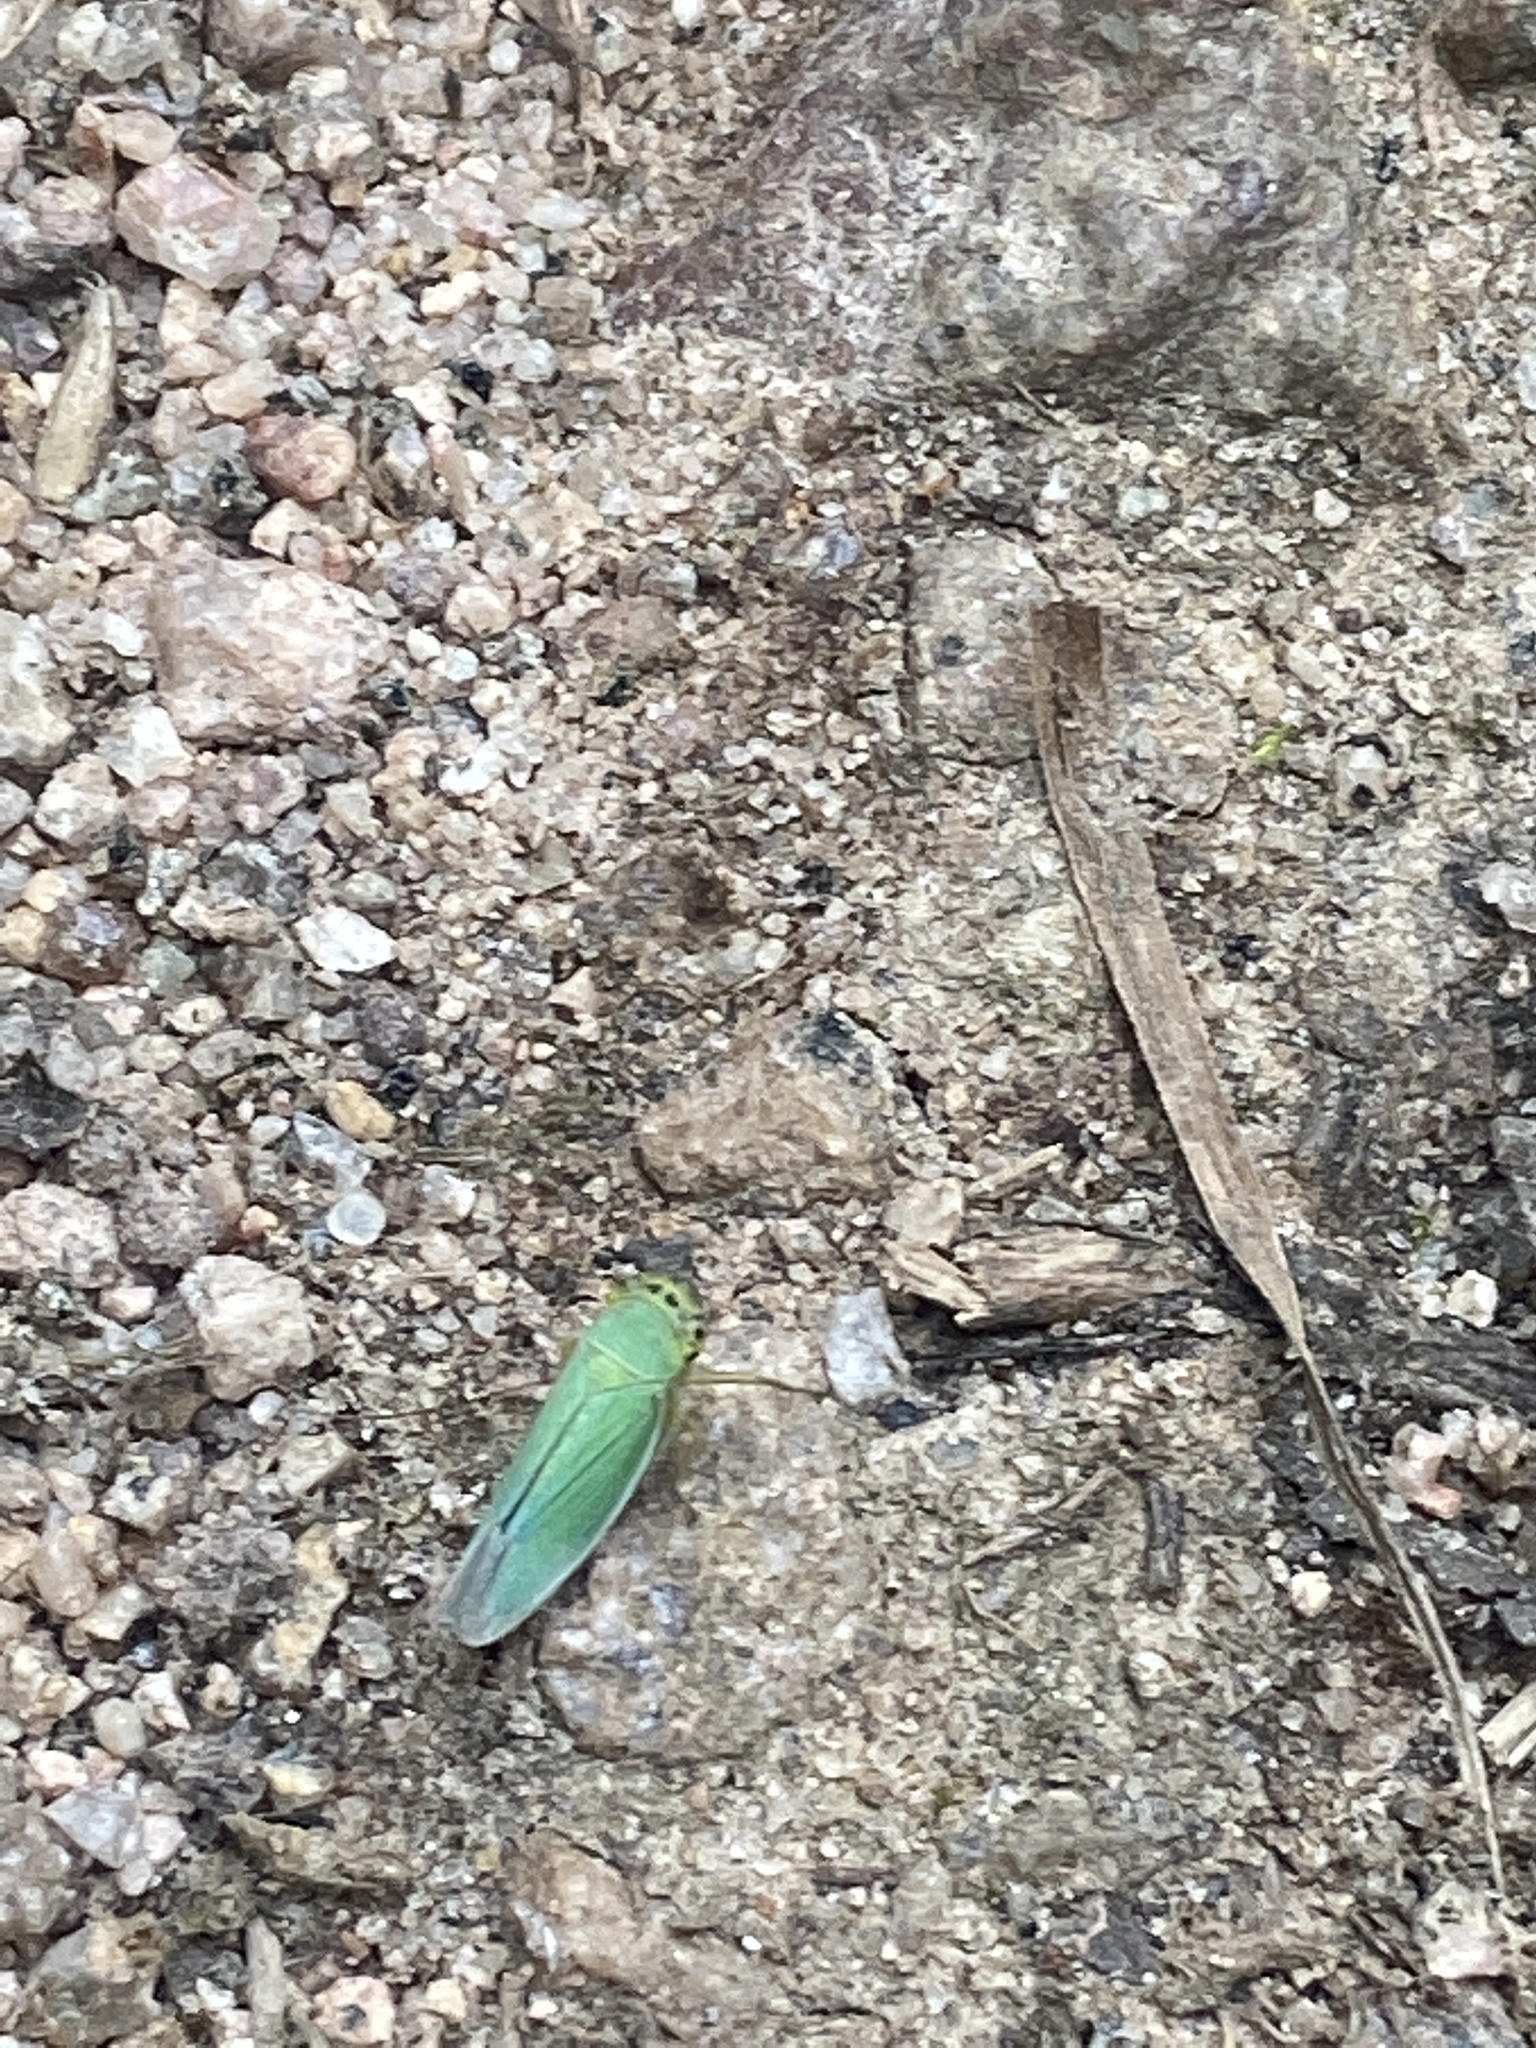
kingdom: Animalia
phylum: Arthropoda
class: Insecta
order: Hemiptera
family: Cicadellidae
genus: Cicadella
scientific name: Cicadella viridis
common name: Leafhopper
